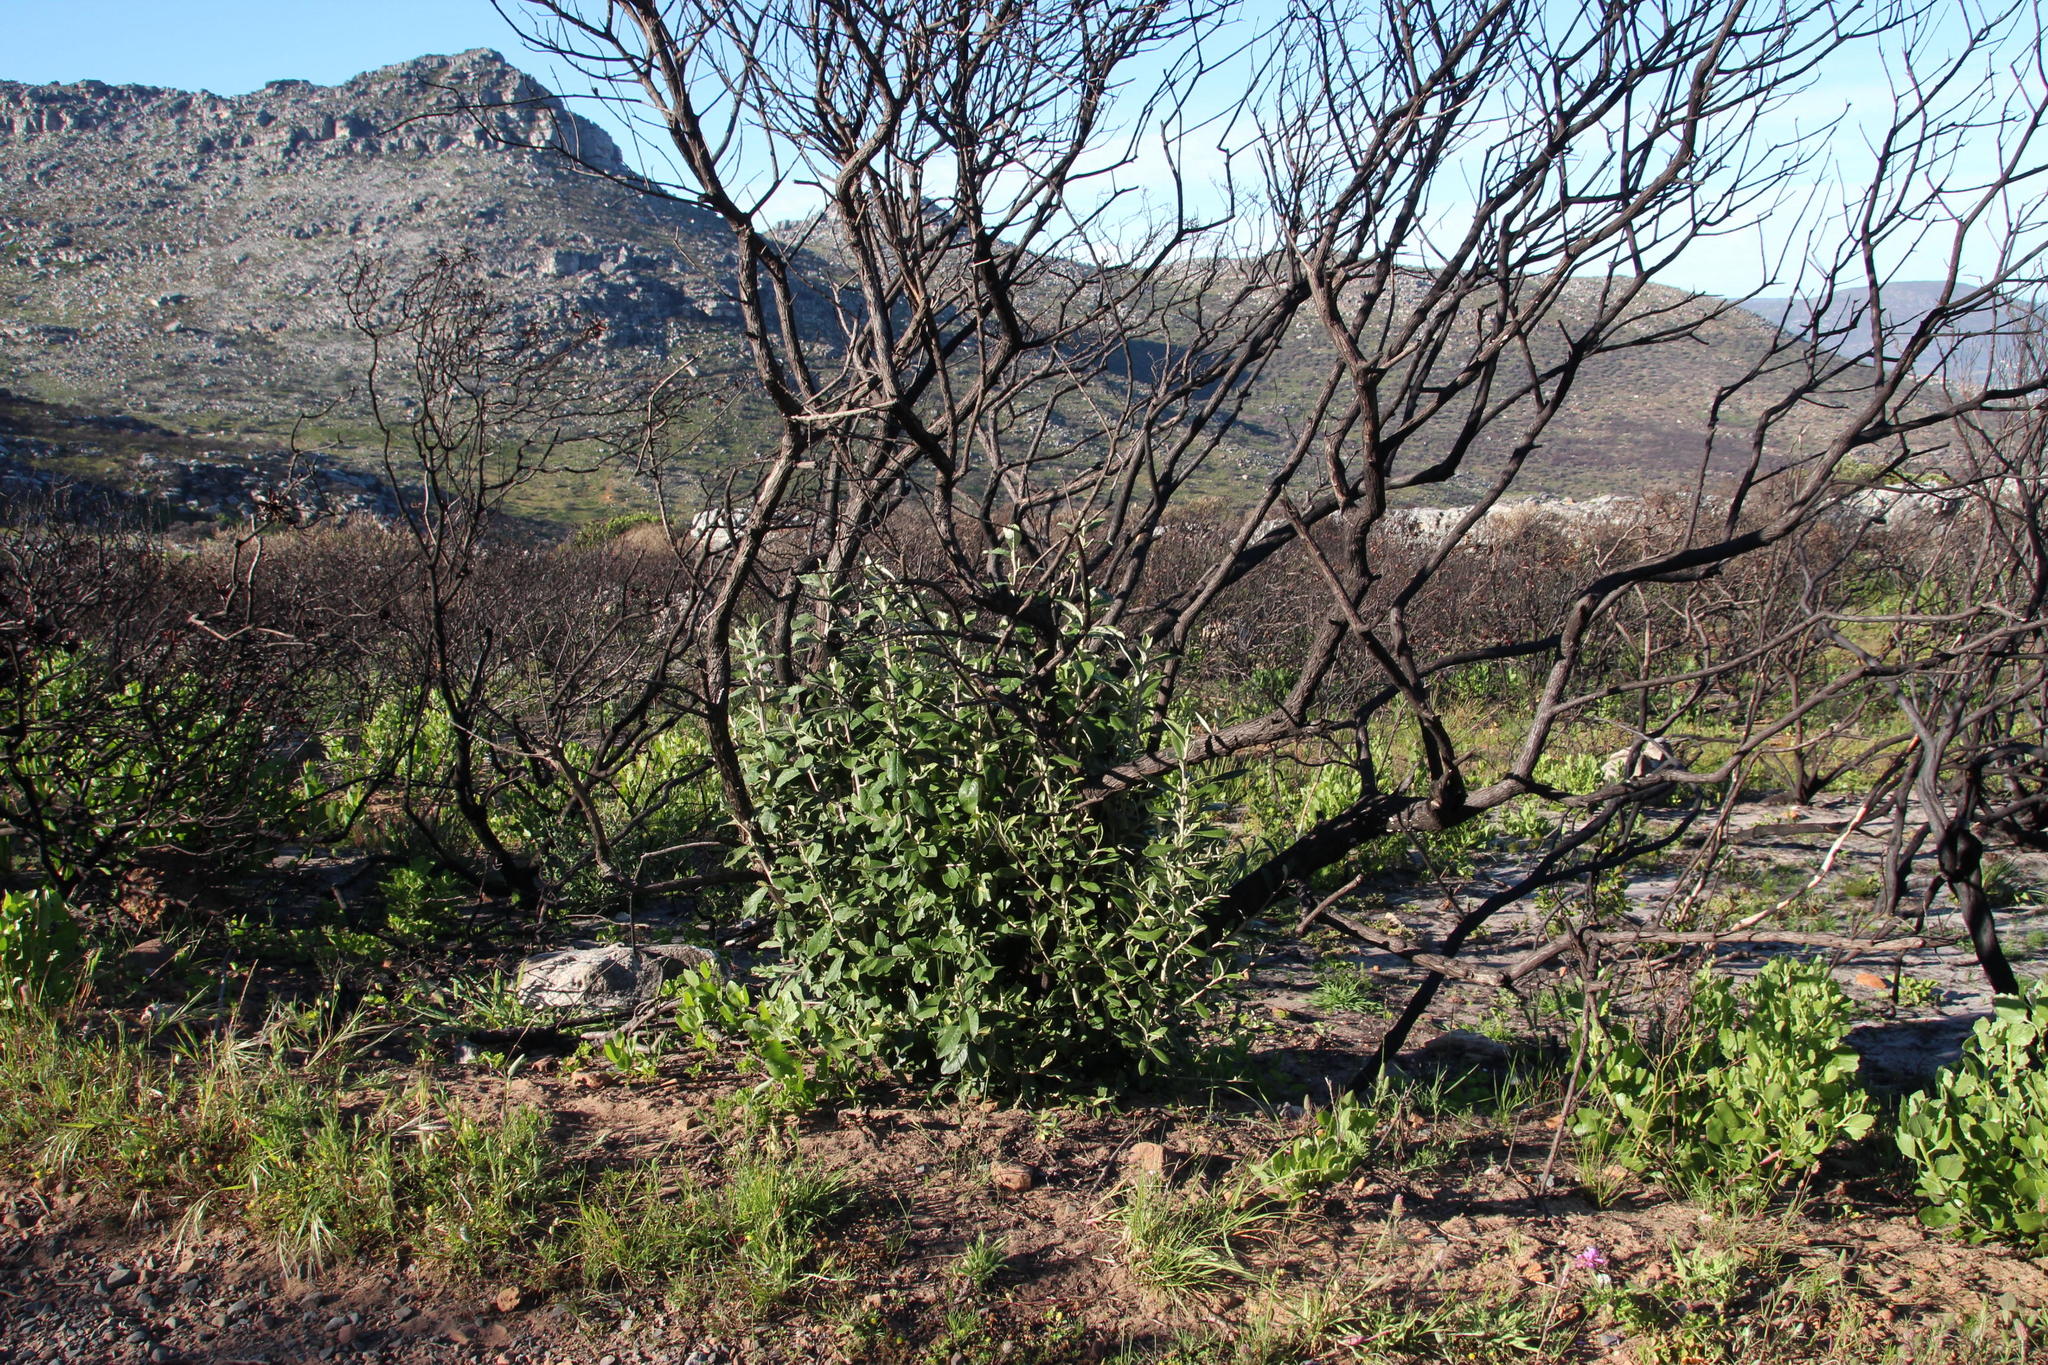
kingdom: Plantae
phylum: Tracheophyta
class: Magnoliopsida
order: Asterales
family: Asteraceae
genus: Tarchonanthus
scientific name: Tarchonanthus littoralis
